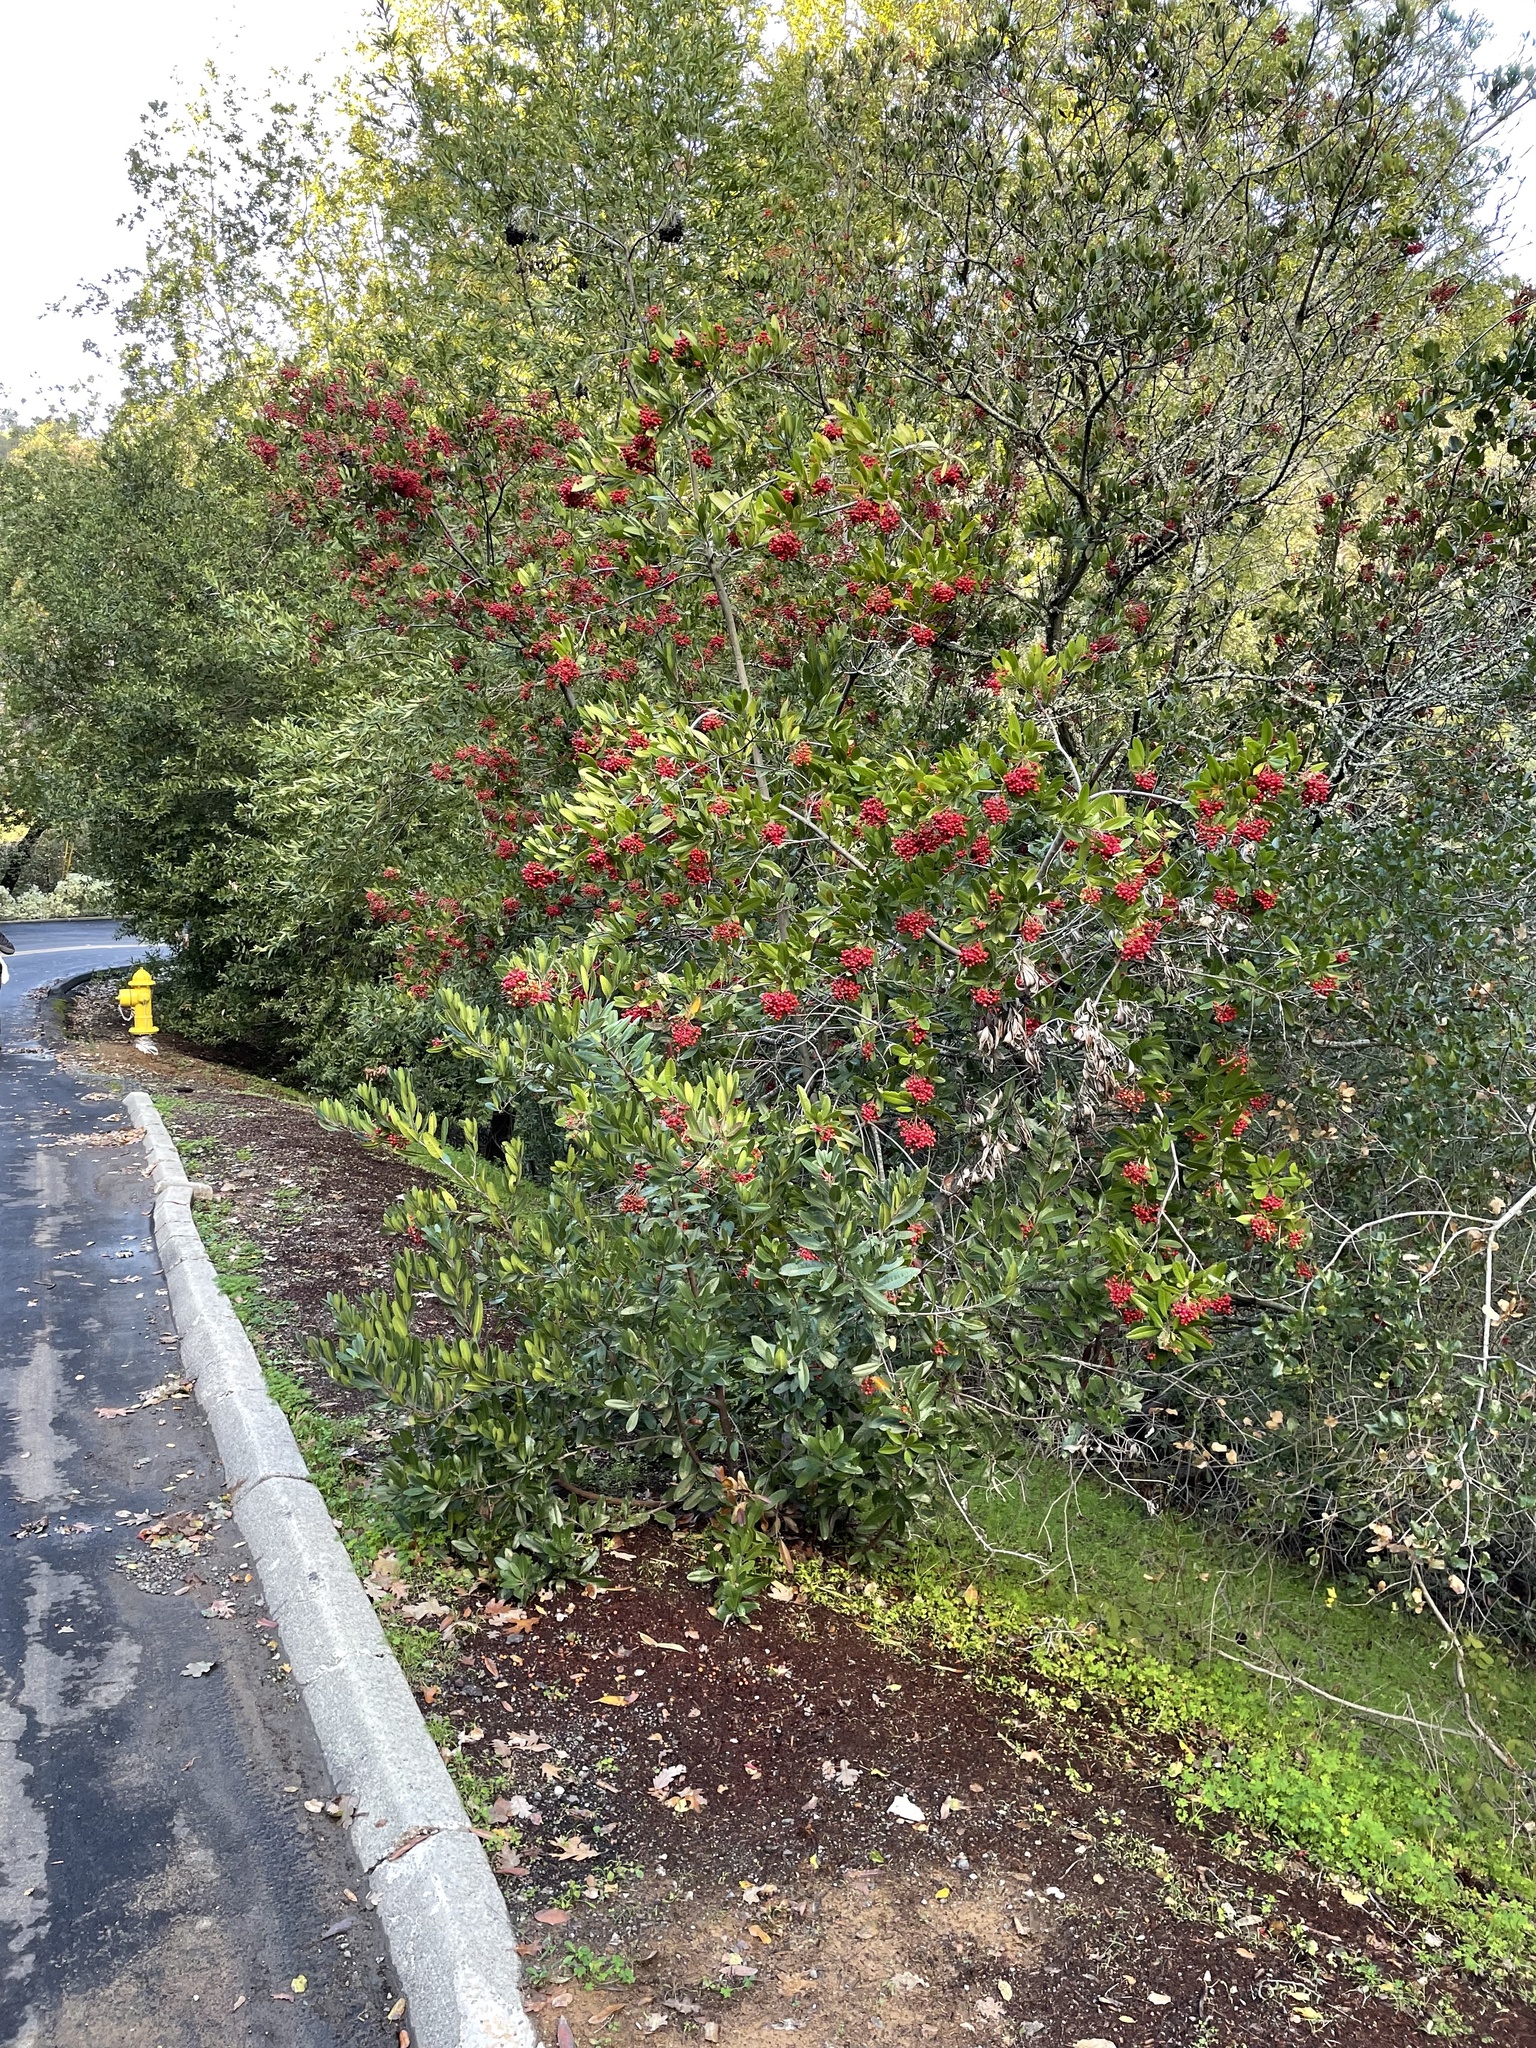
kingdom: Plantae
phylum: Tracheophyta
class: Magnoliopsida
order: Rosales
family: Rosaceae
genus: Heteromeles
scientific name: Heteromeles arbutifolia
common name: California-holly
